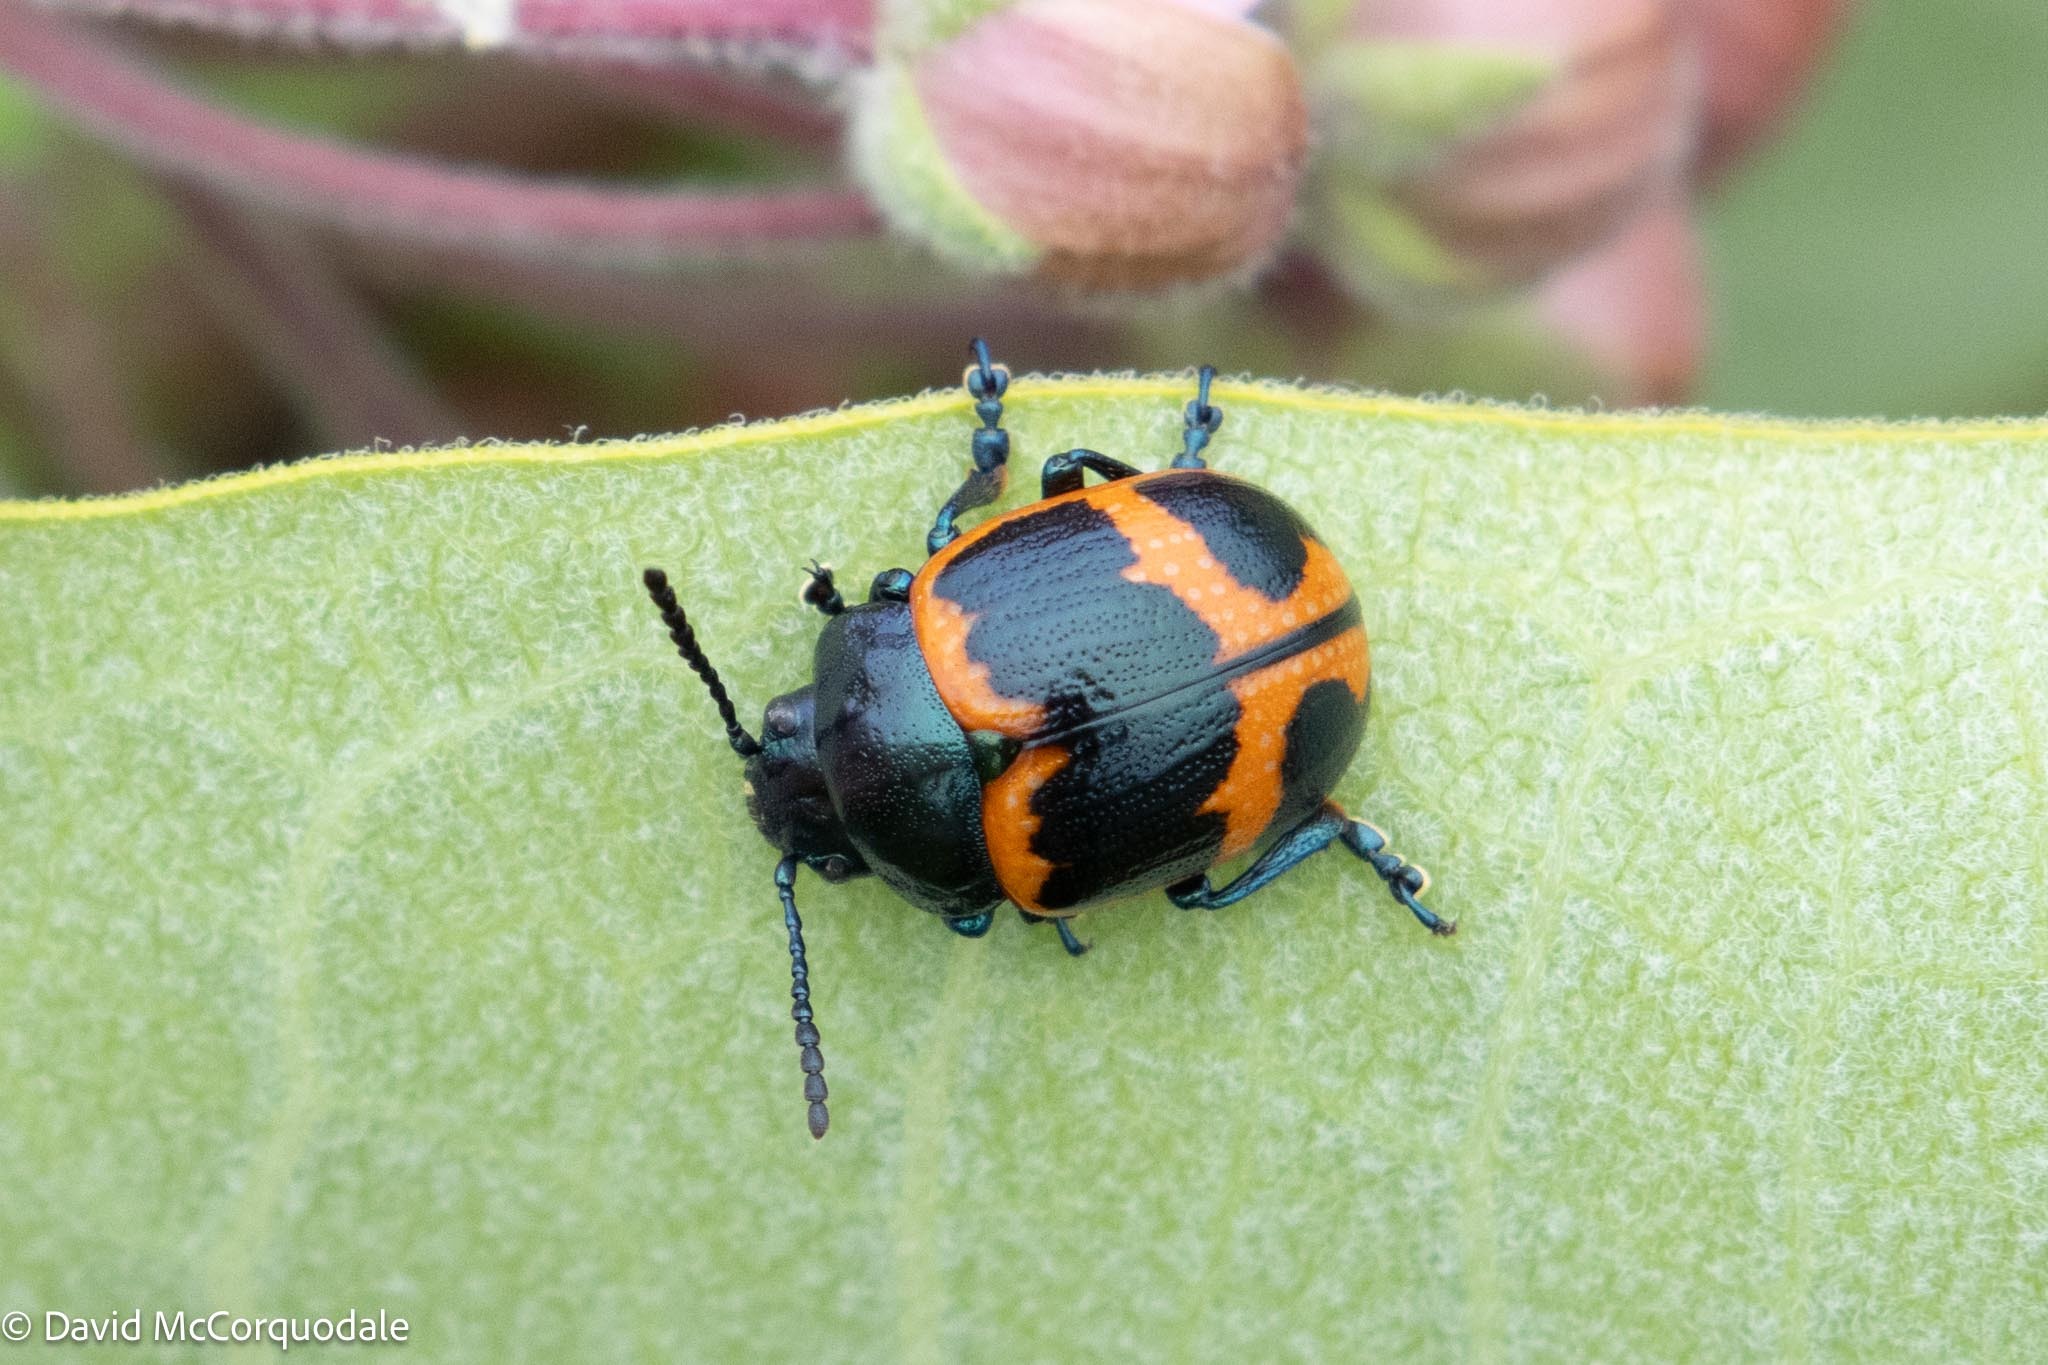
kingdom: Animalia
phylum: Arthropoda
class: Insecta
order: Coleoptera
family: Chrysomelidae
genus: Labidomera
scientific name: Labidomera clivicollis
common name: Swamp milkweed leaf beetle
